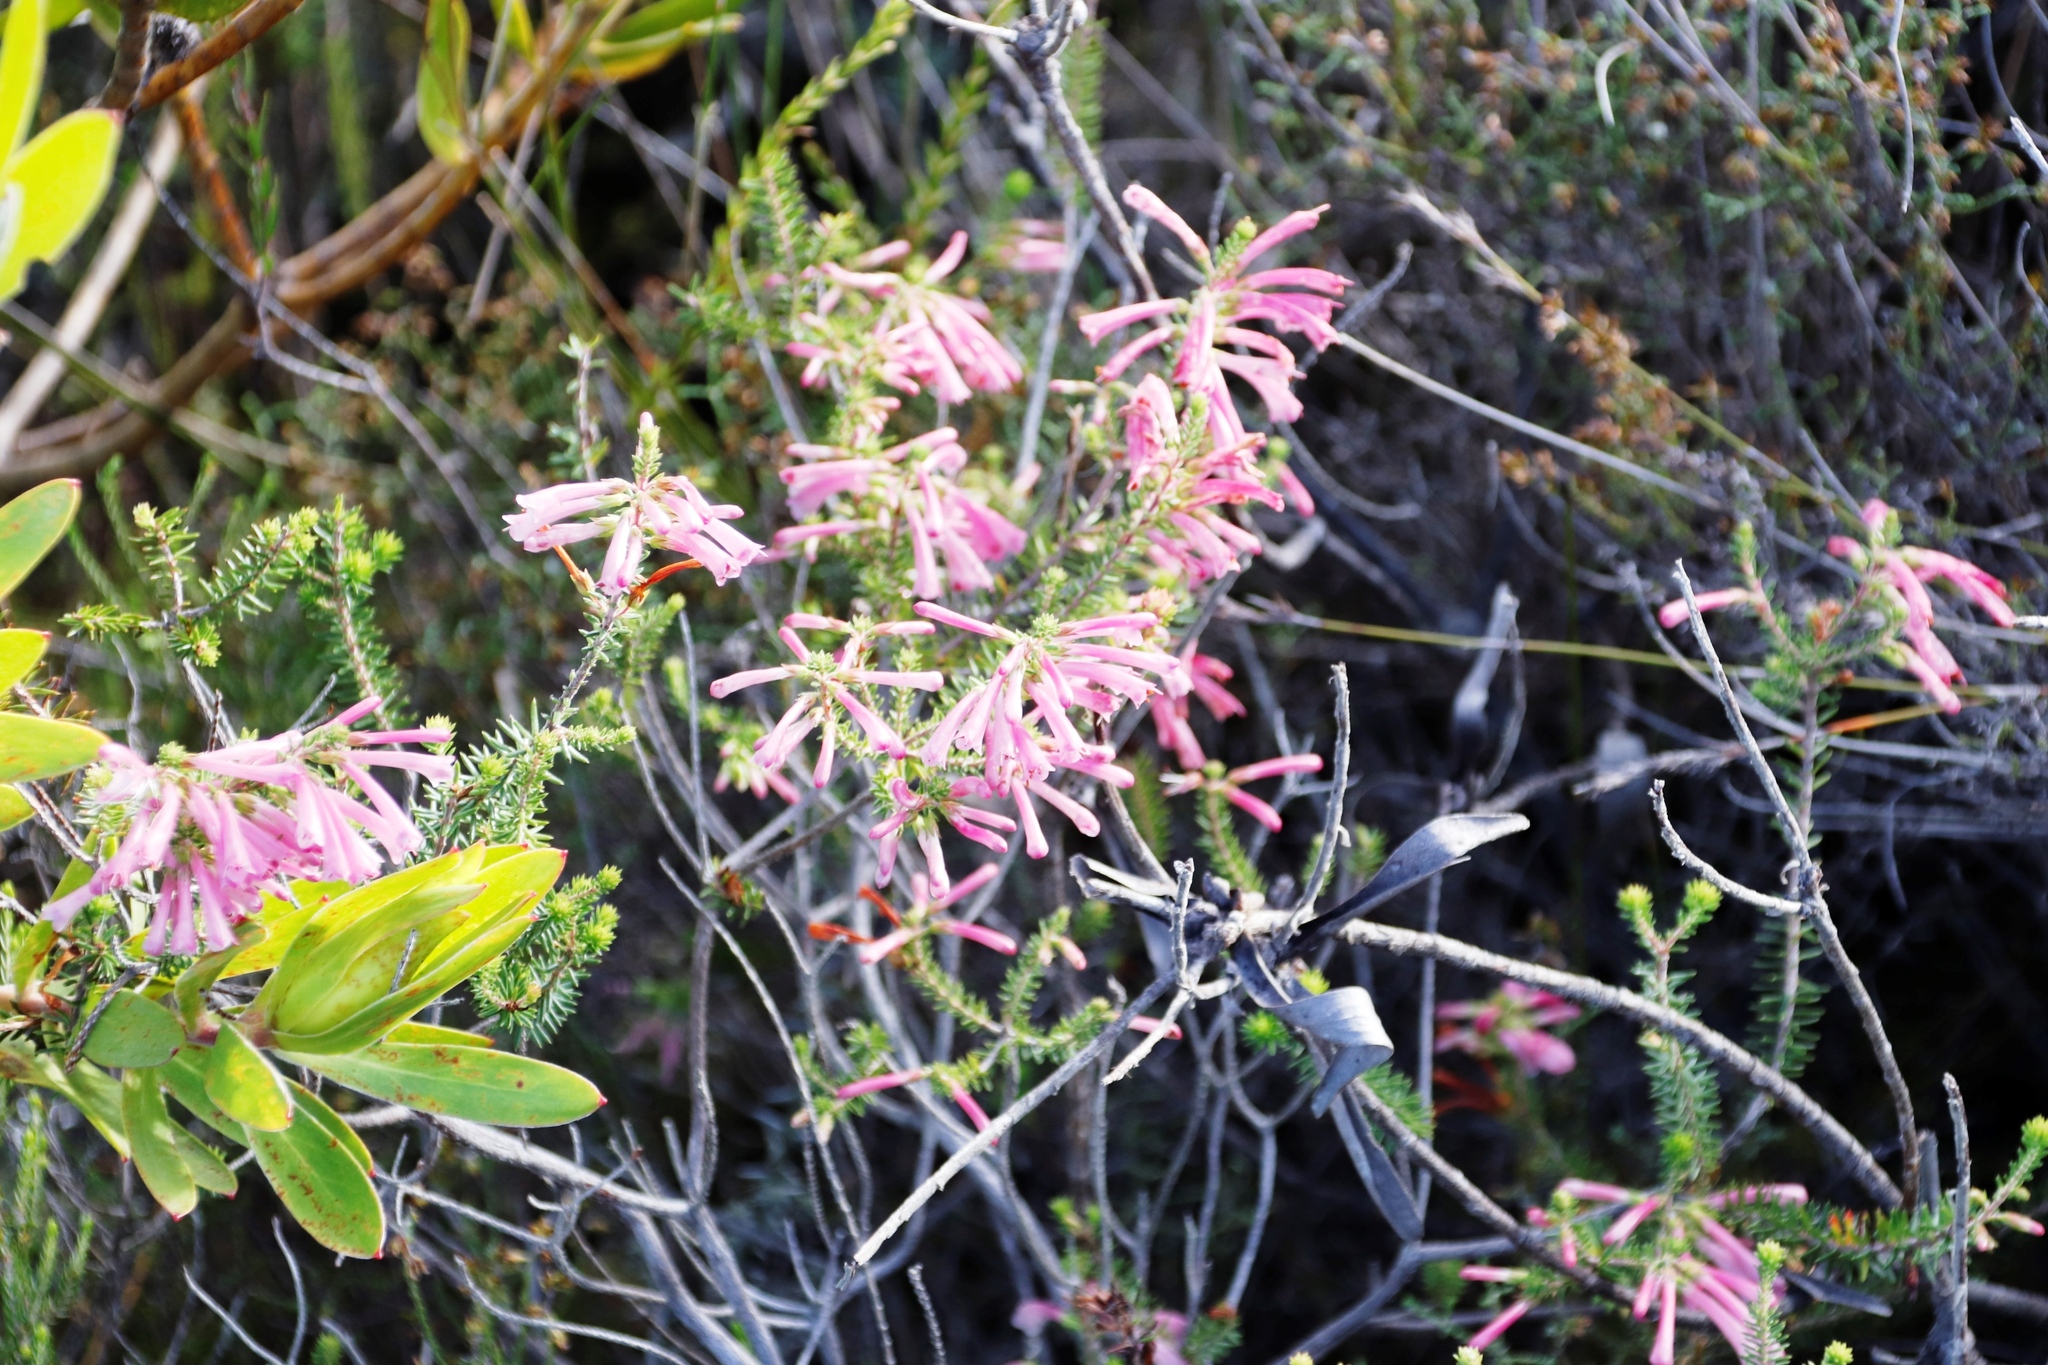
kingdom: Plantae
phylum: Tracheophyta
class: Magnoliopsida
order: Ericales
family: Ericaceae
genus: Erica
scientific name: Erica abietina
